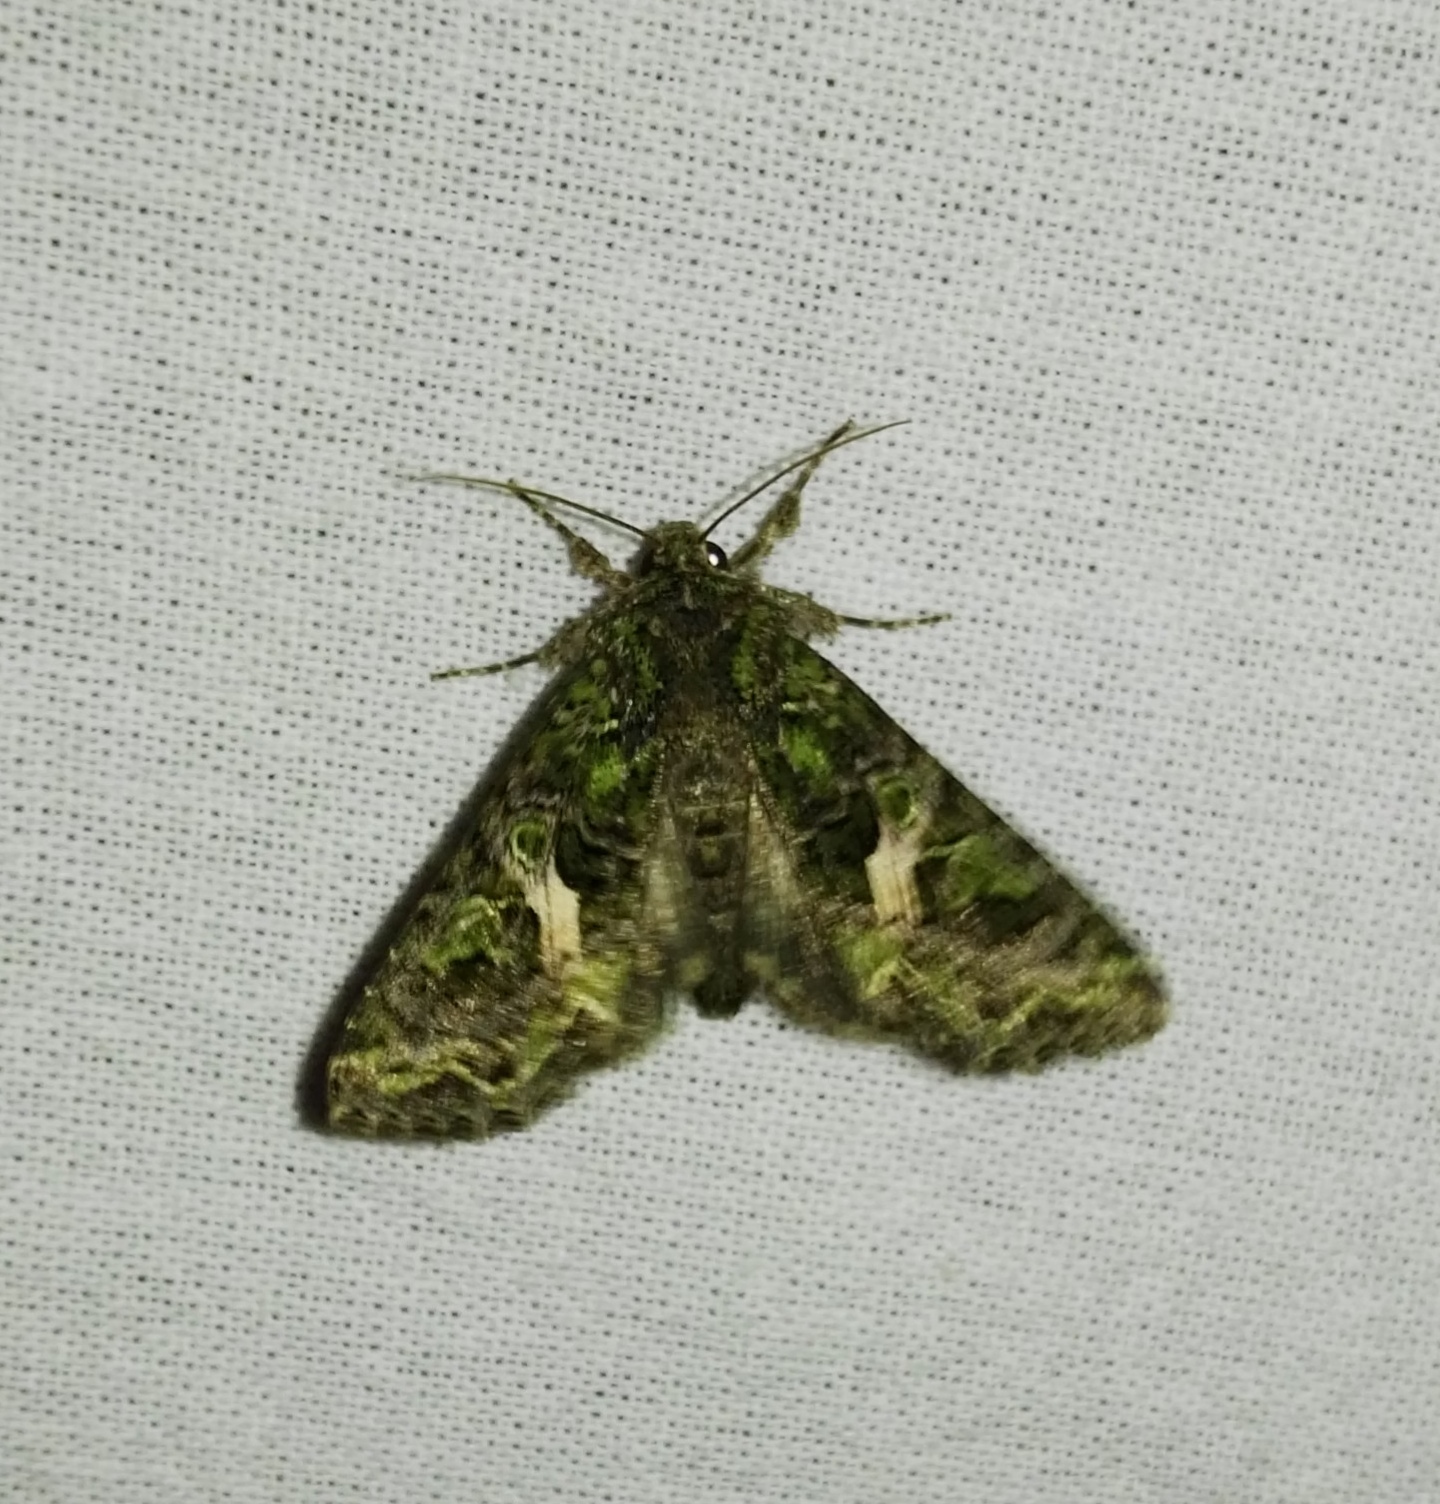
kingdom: Animalia
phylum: Arthropoda
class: Insecta
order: Lepidoptera
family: Noctuidae
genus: Trachea
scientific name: Trachea atriplicis
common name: Orache moth
